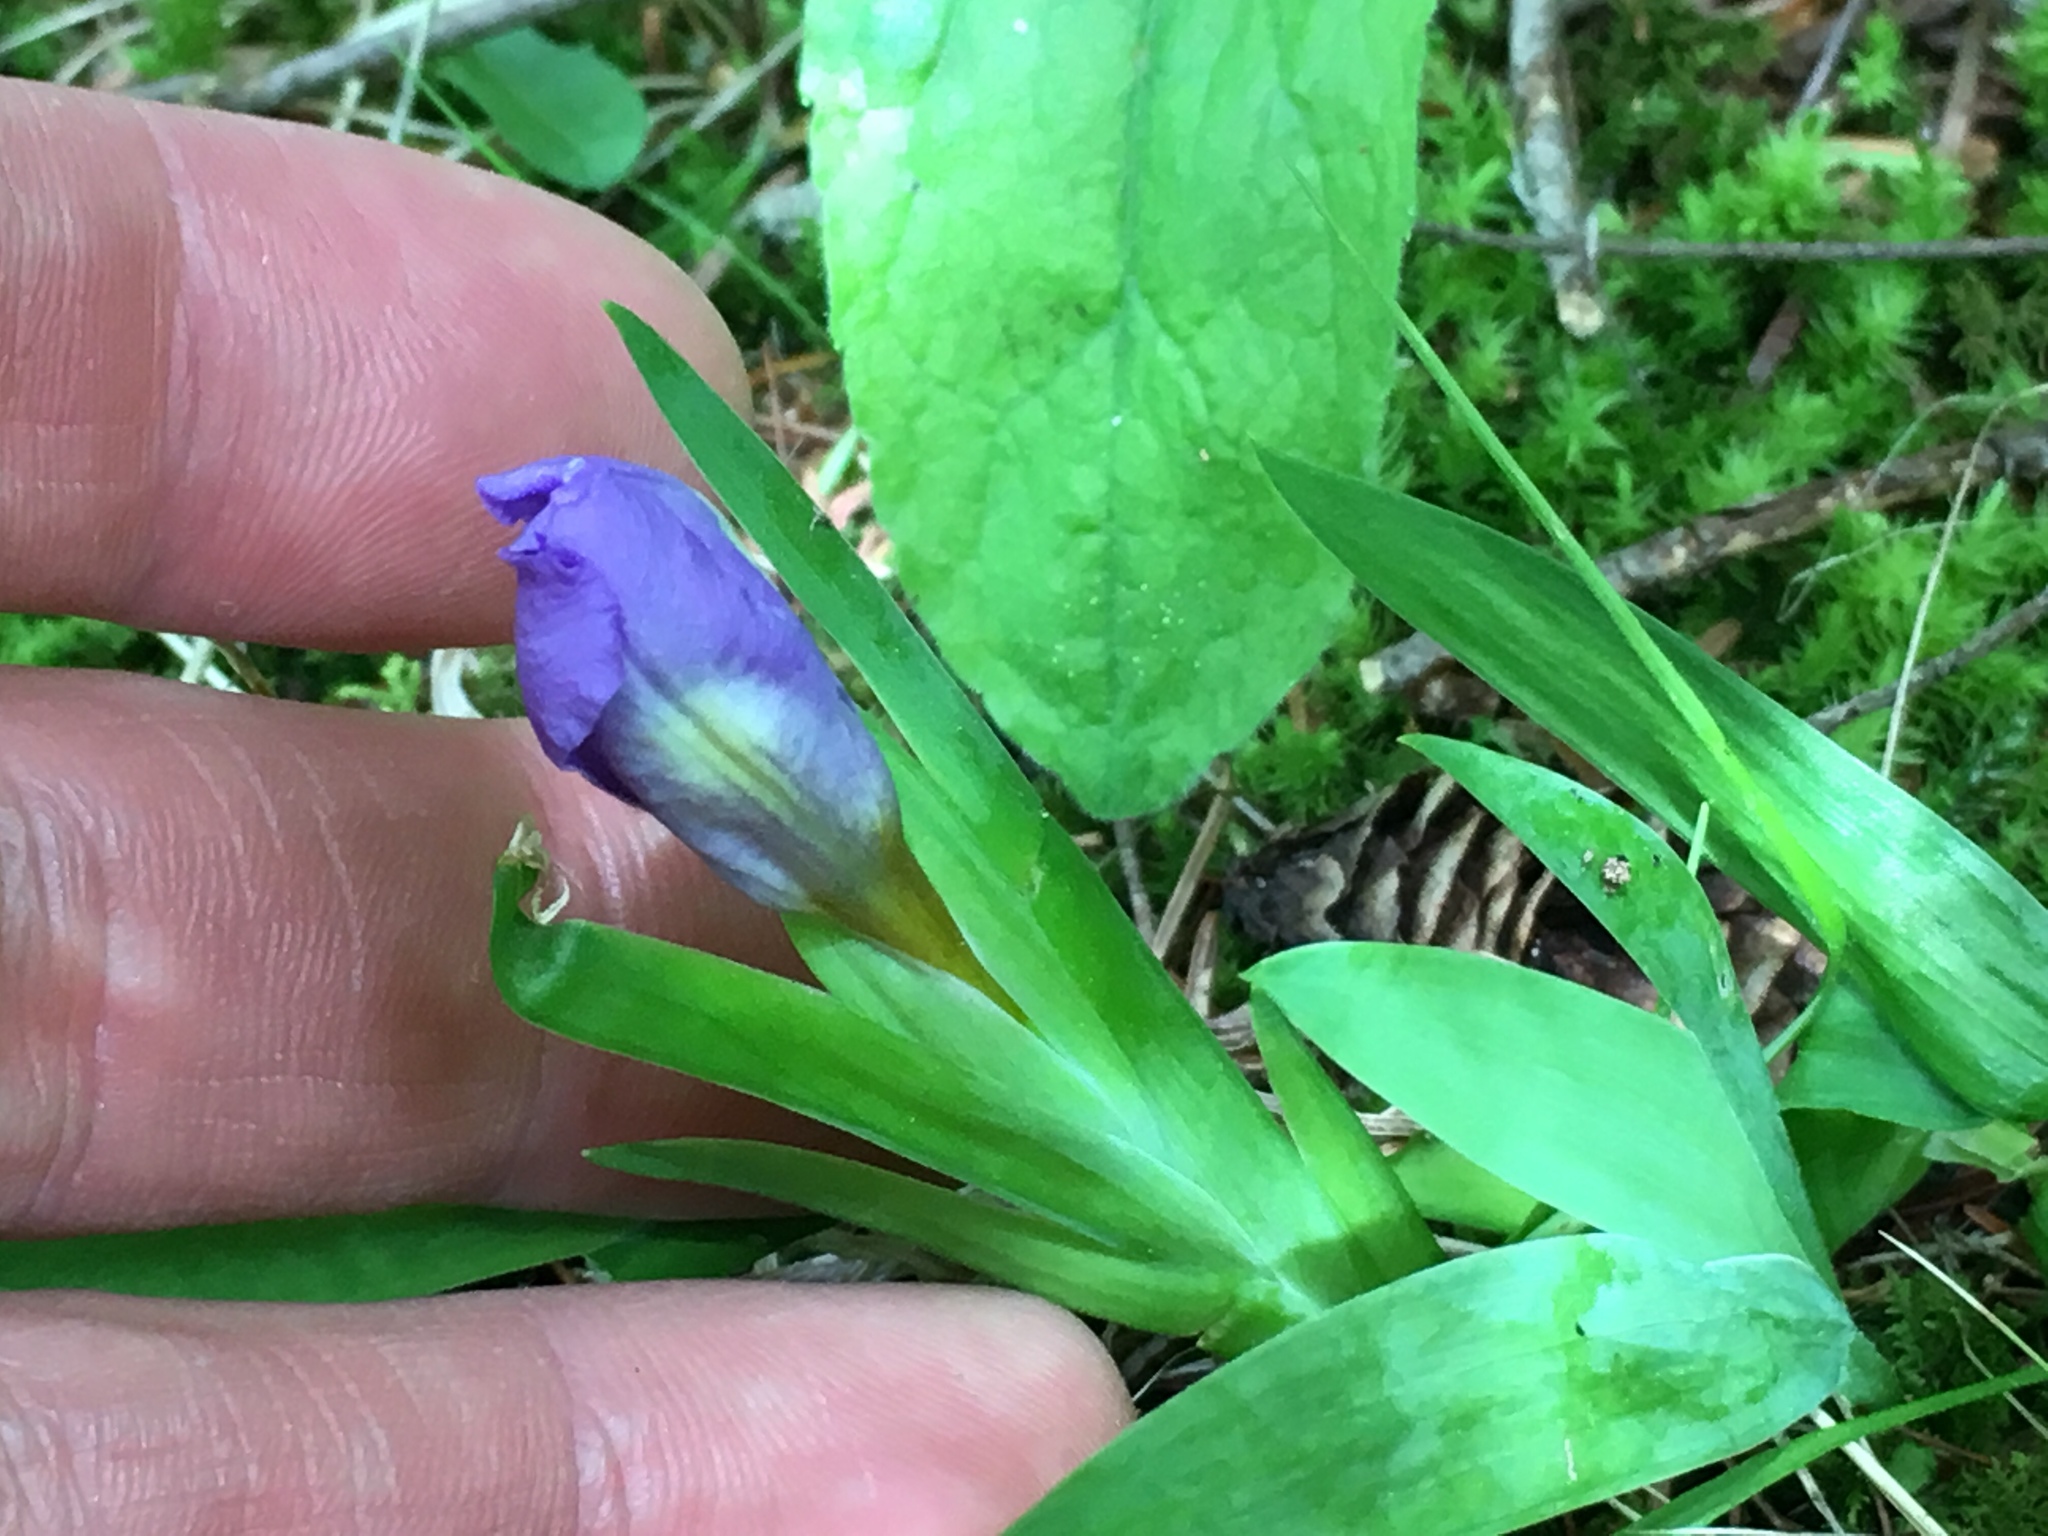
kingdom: Plantae
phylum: Tracheophyta
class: Liliopsida
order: Asparagales
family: Iridaceae
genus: Iris
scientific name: Iris lacustris
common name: Dwarf lake iris
